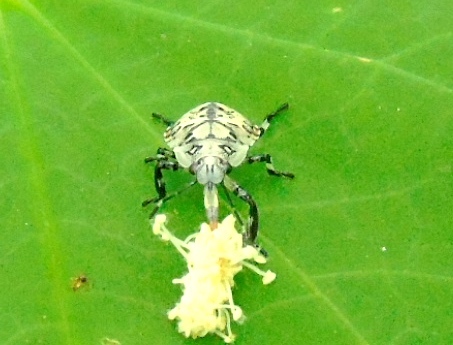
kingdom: Animalia
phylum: Arthropoda
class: Insecta
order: Hemiptera
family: Pentatomidae
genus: Apateticus
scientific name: Apateticus lineolatus
